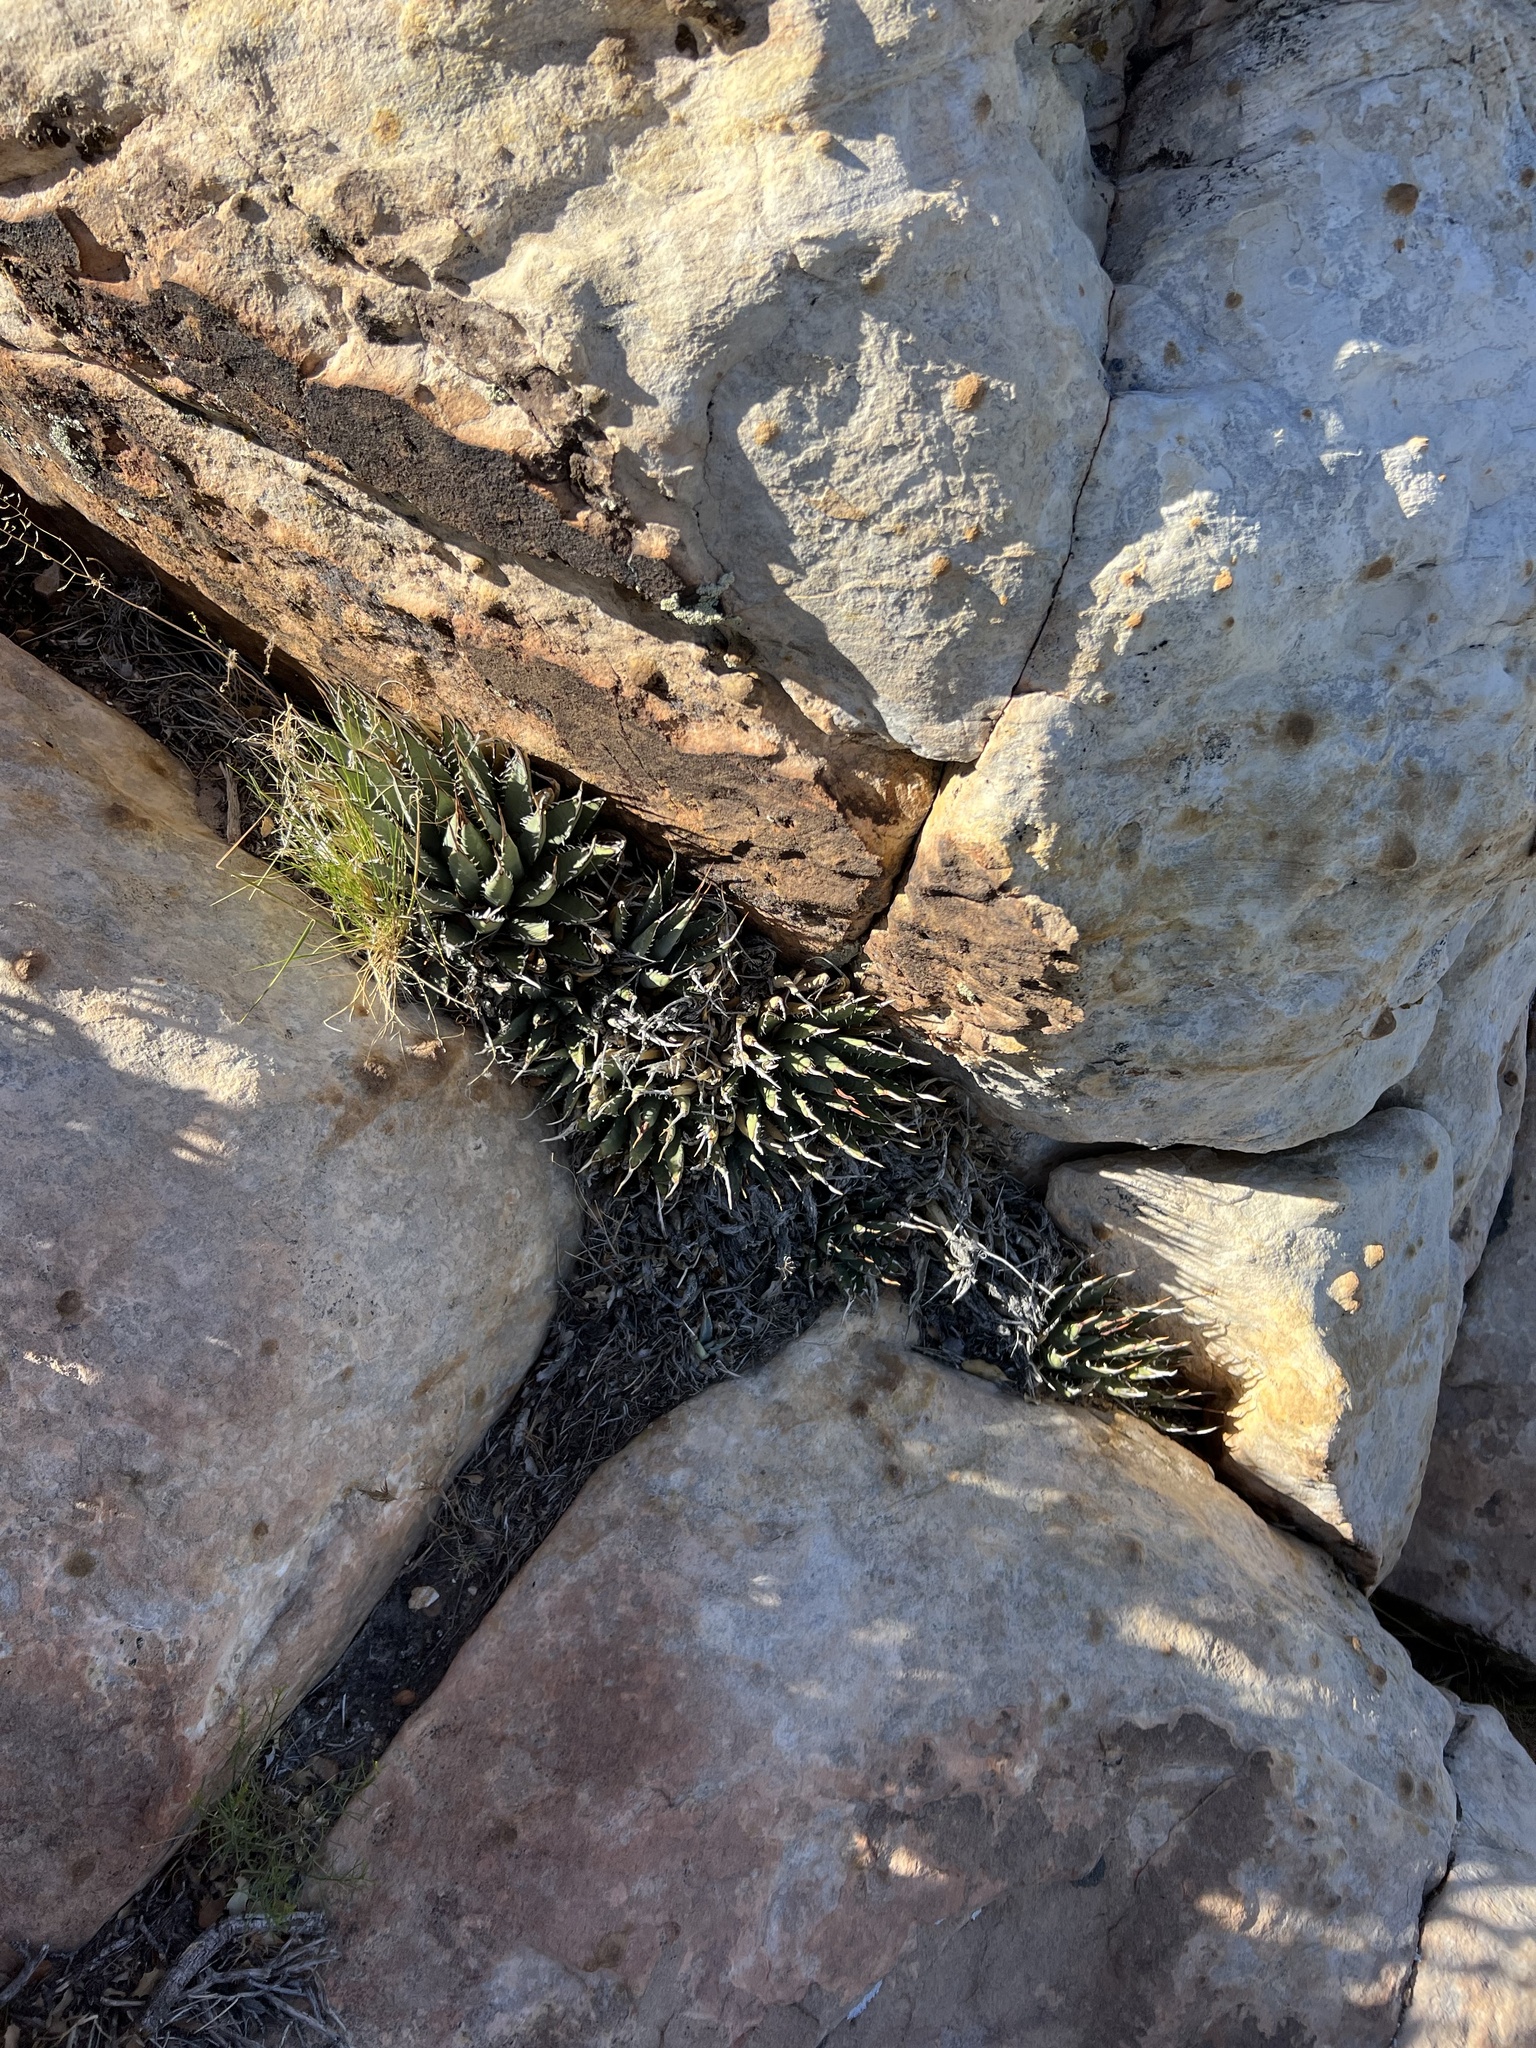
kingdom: Plantae
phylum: Tracheophyta
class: Liliopsida
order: Asparagales
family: Asparagaceae
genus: Agave
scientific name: Agave utahensis
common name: Utah agave
